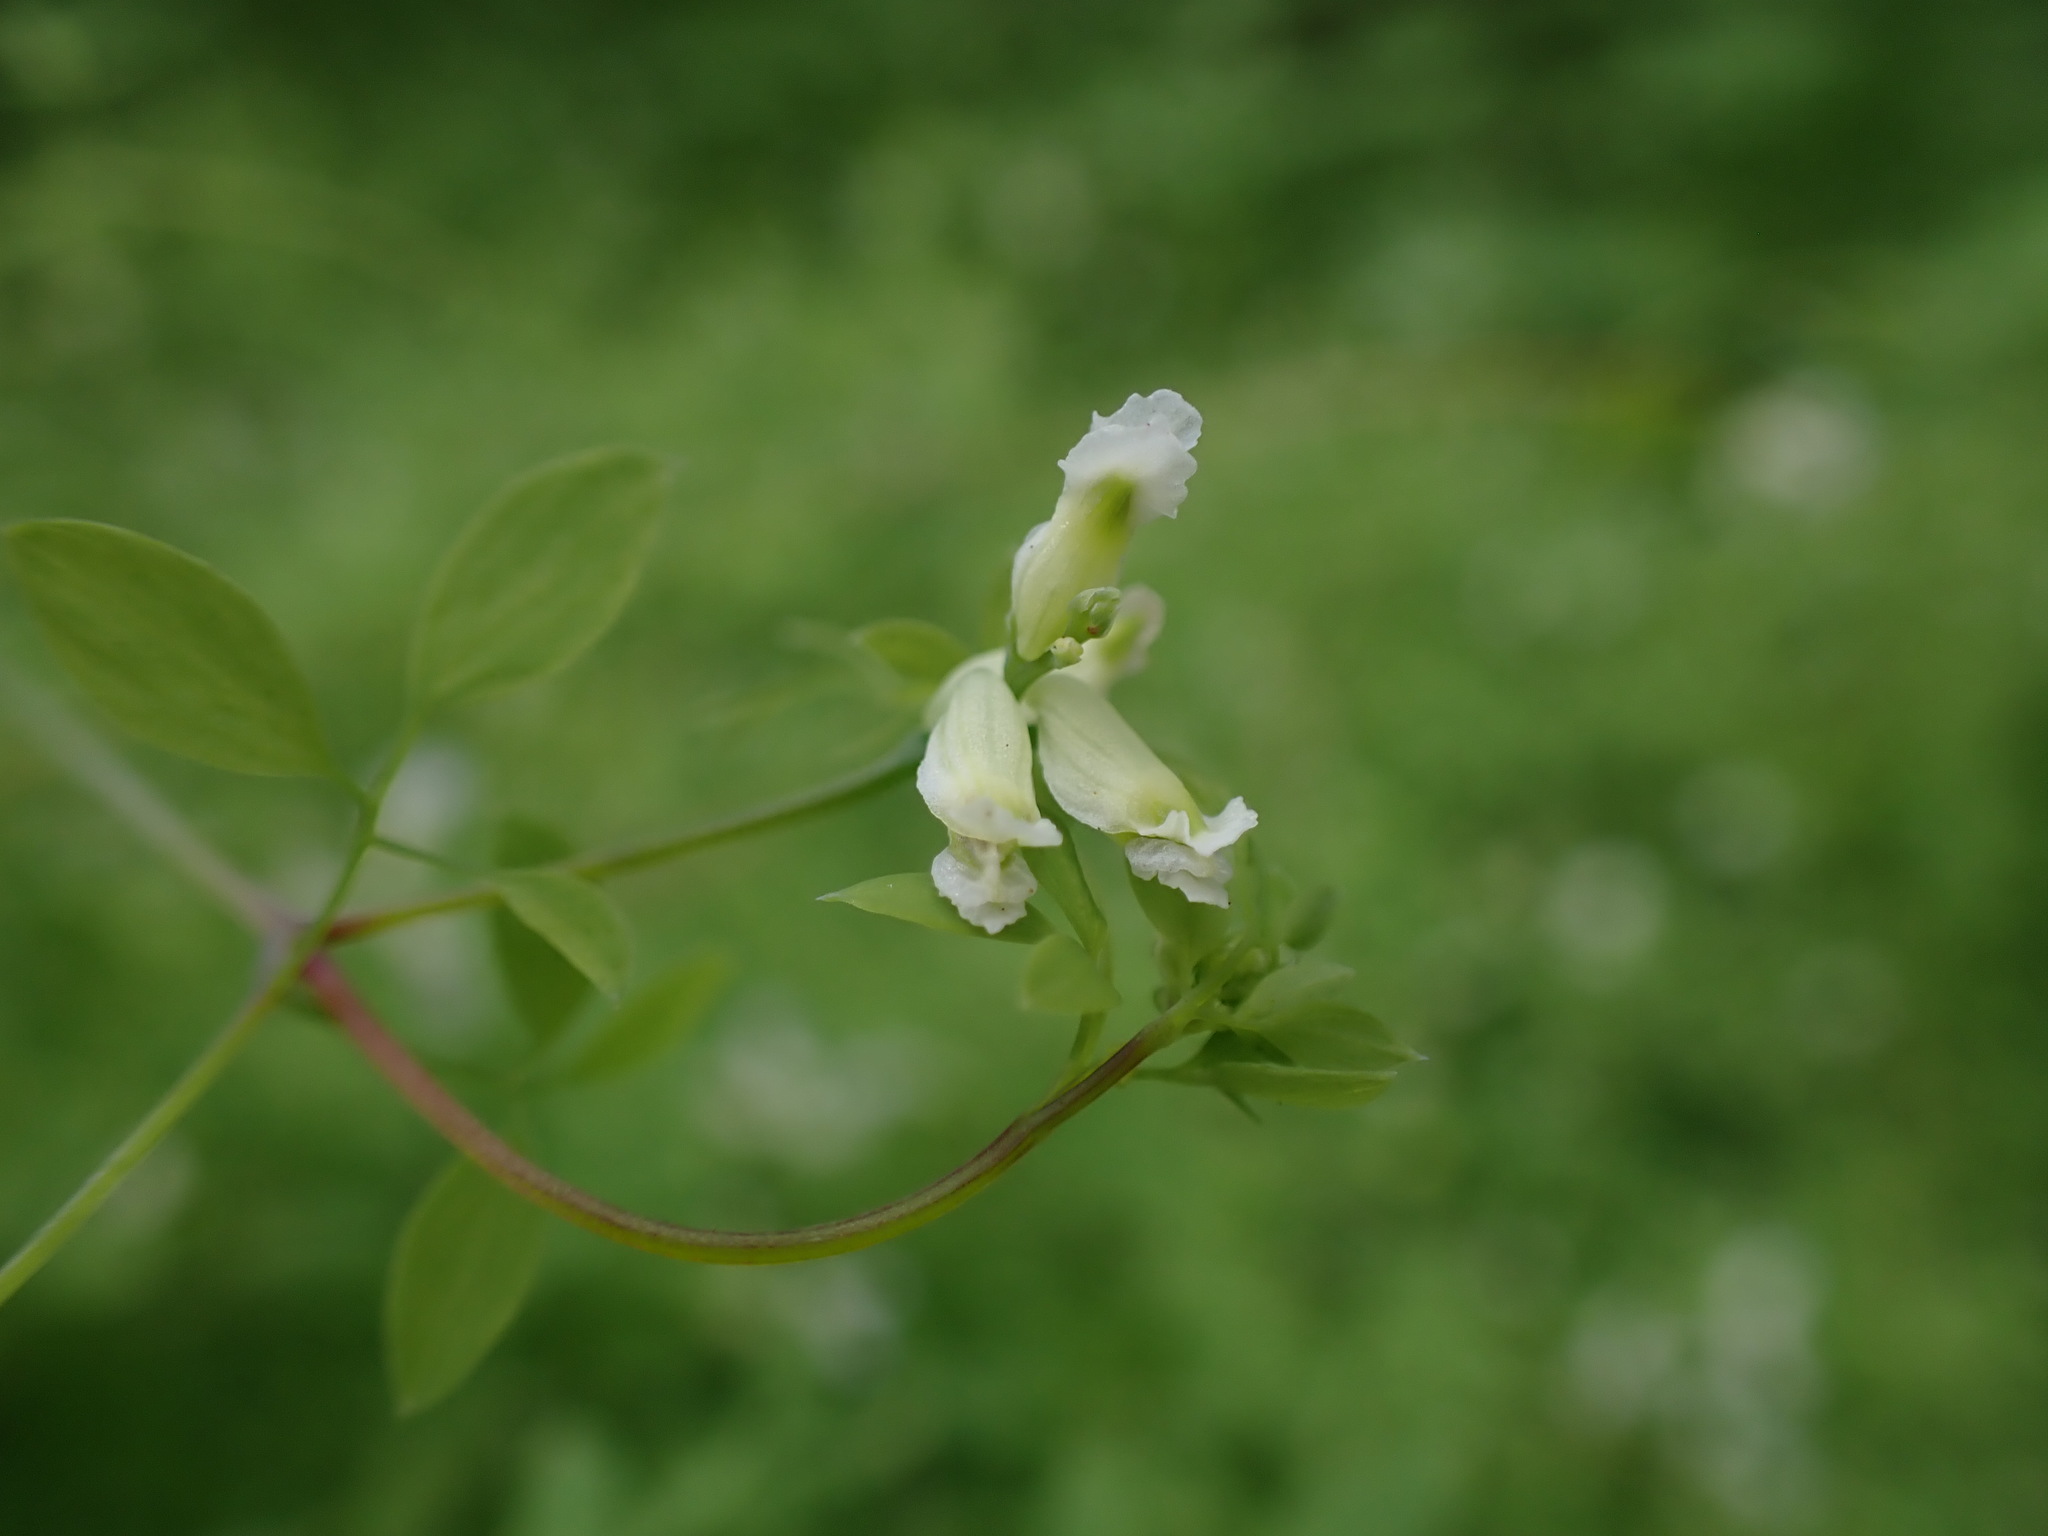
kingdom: Plantae
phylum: Tracheophyta
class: Magnoliopsida
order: Ranunculales
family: Papaveraceae
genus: Ceratocapnos
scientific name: Ceratocapnos claviculata
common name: Climbing corydalis
